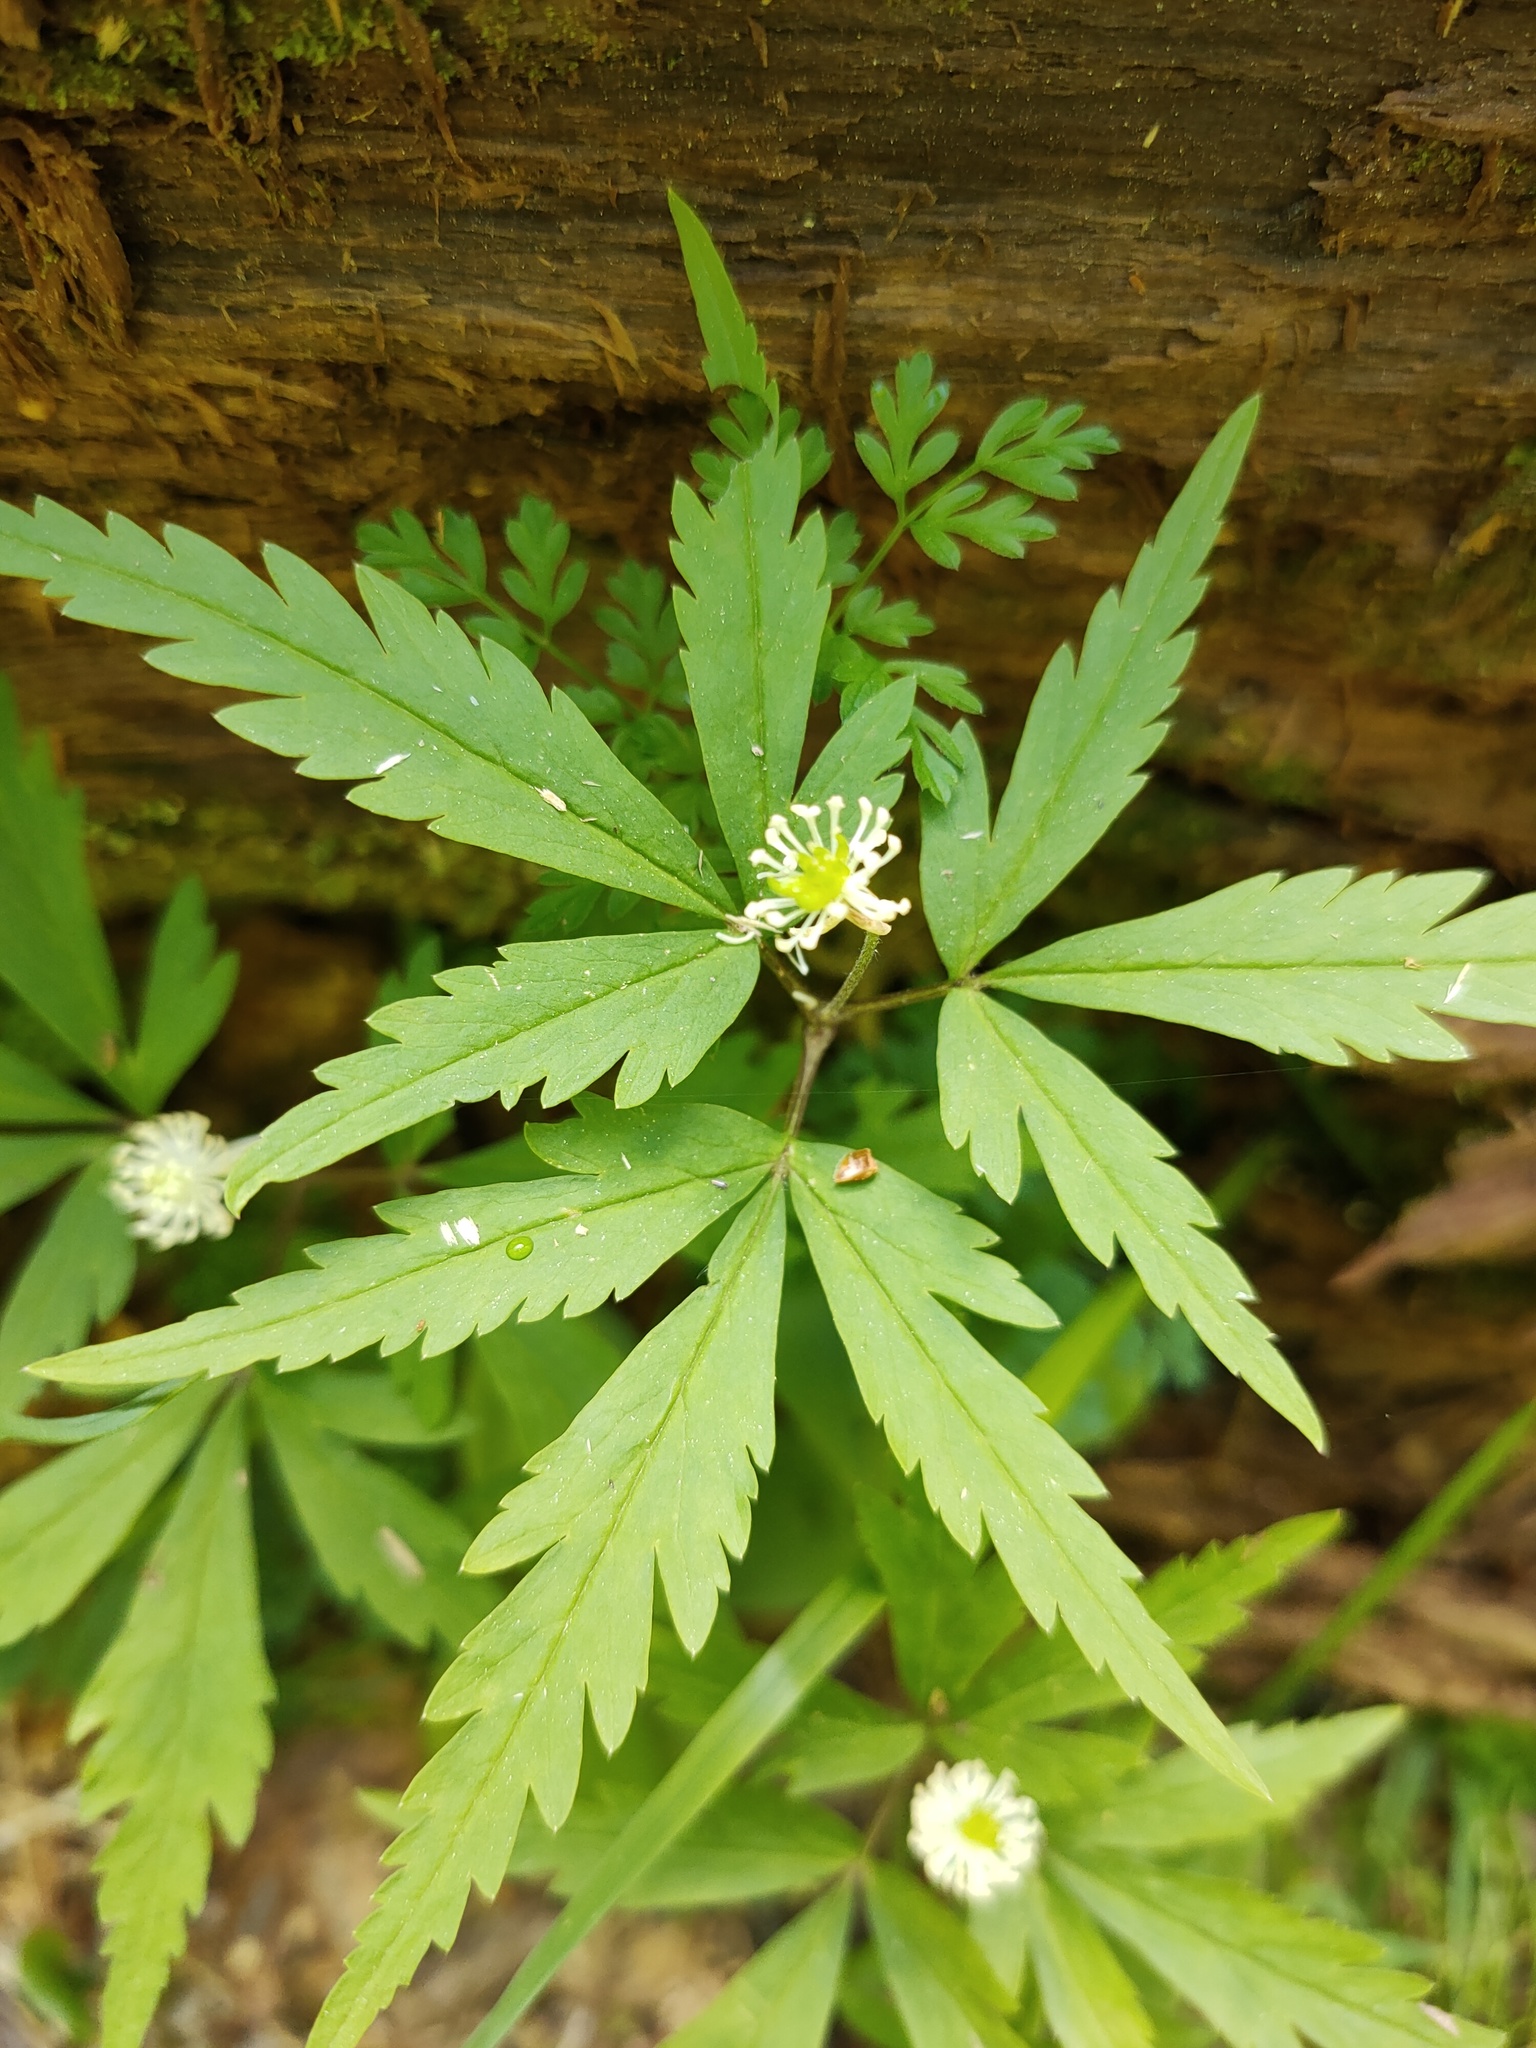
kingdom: Plantae
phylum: Tracheophyta
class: Magnoliopsida
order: Ranunculales
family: Ranunculaceae
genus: Anemone
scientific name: Anemone reflexa
